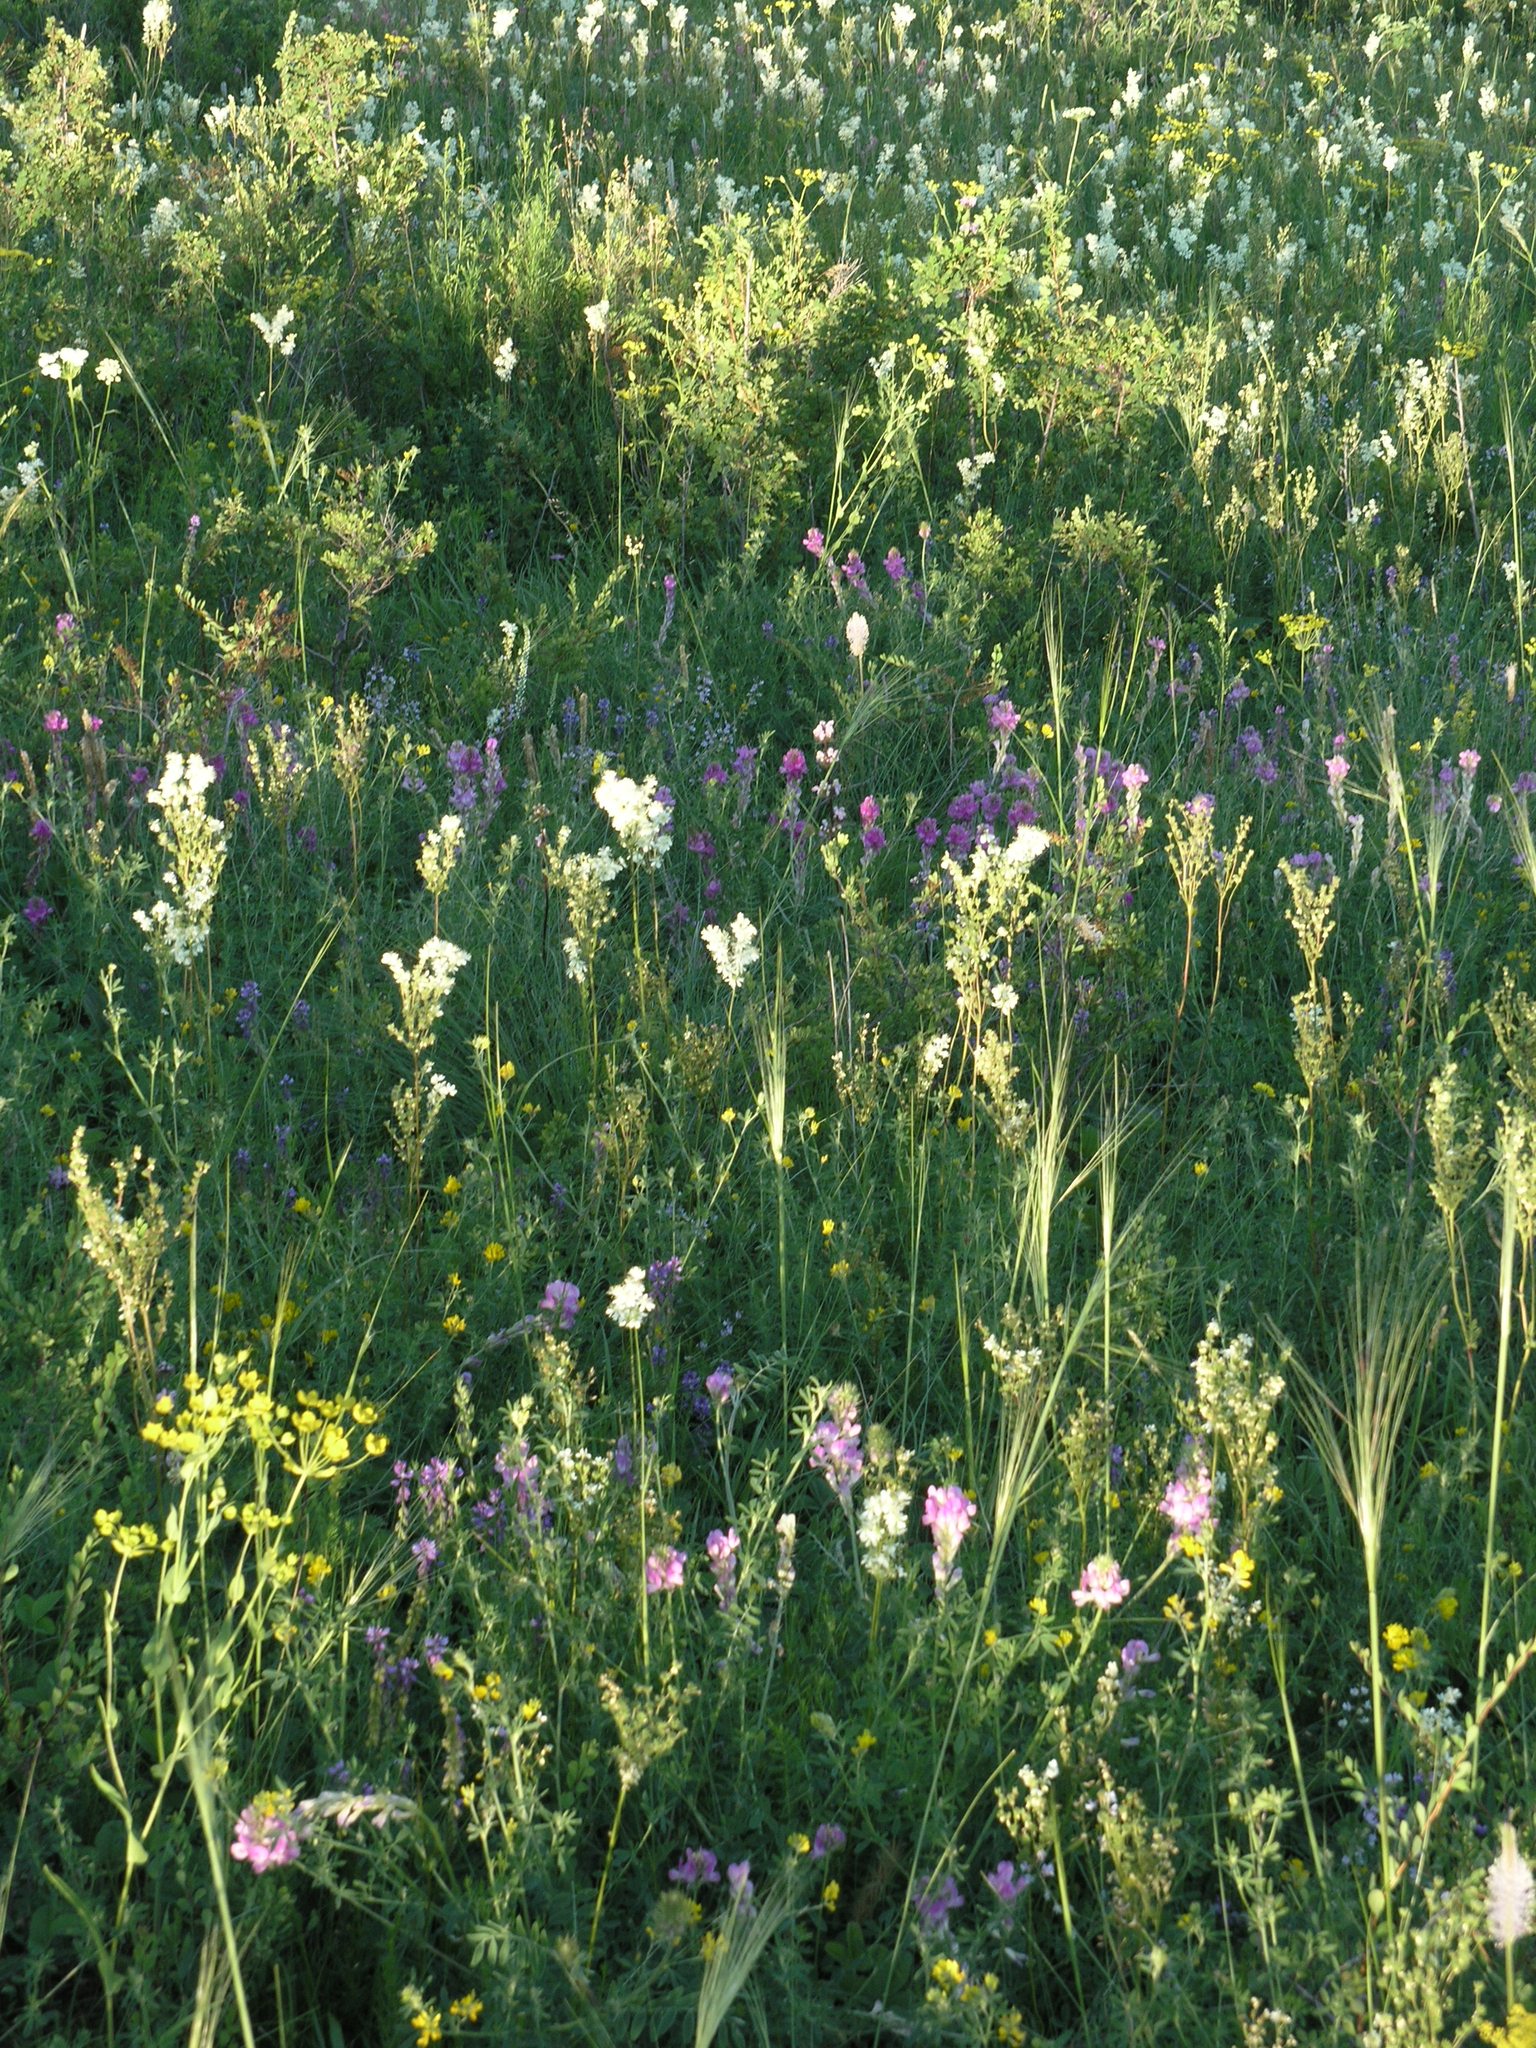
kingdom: Plantae
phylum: Tracheophyta
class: Liliopsida
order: Poales
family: Poaceae
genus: Stipa
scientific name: Stipa capillata
